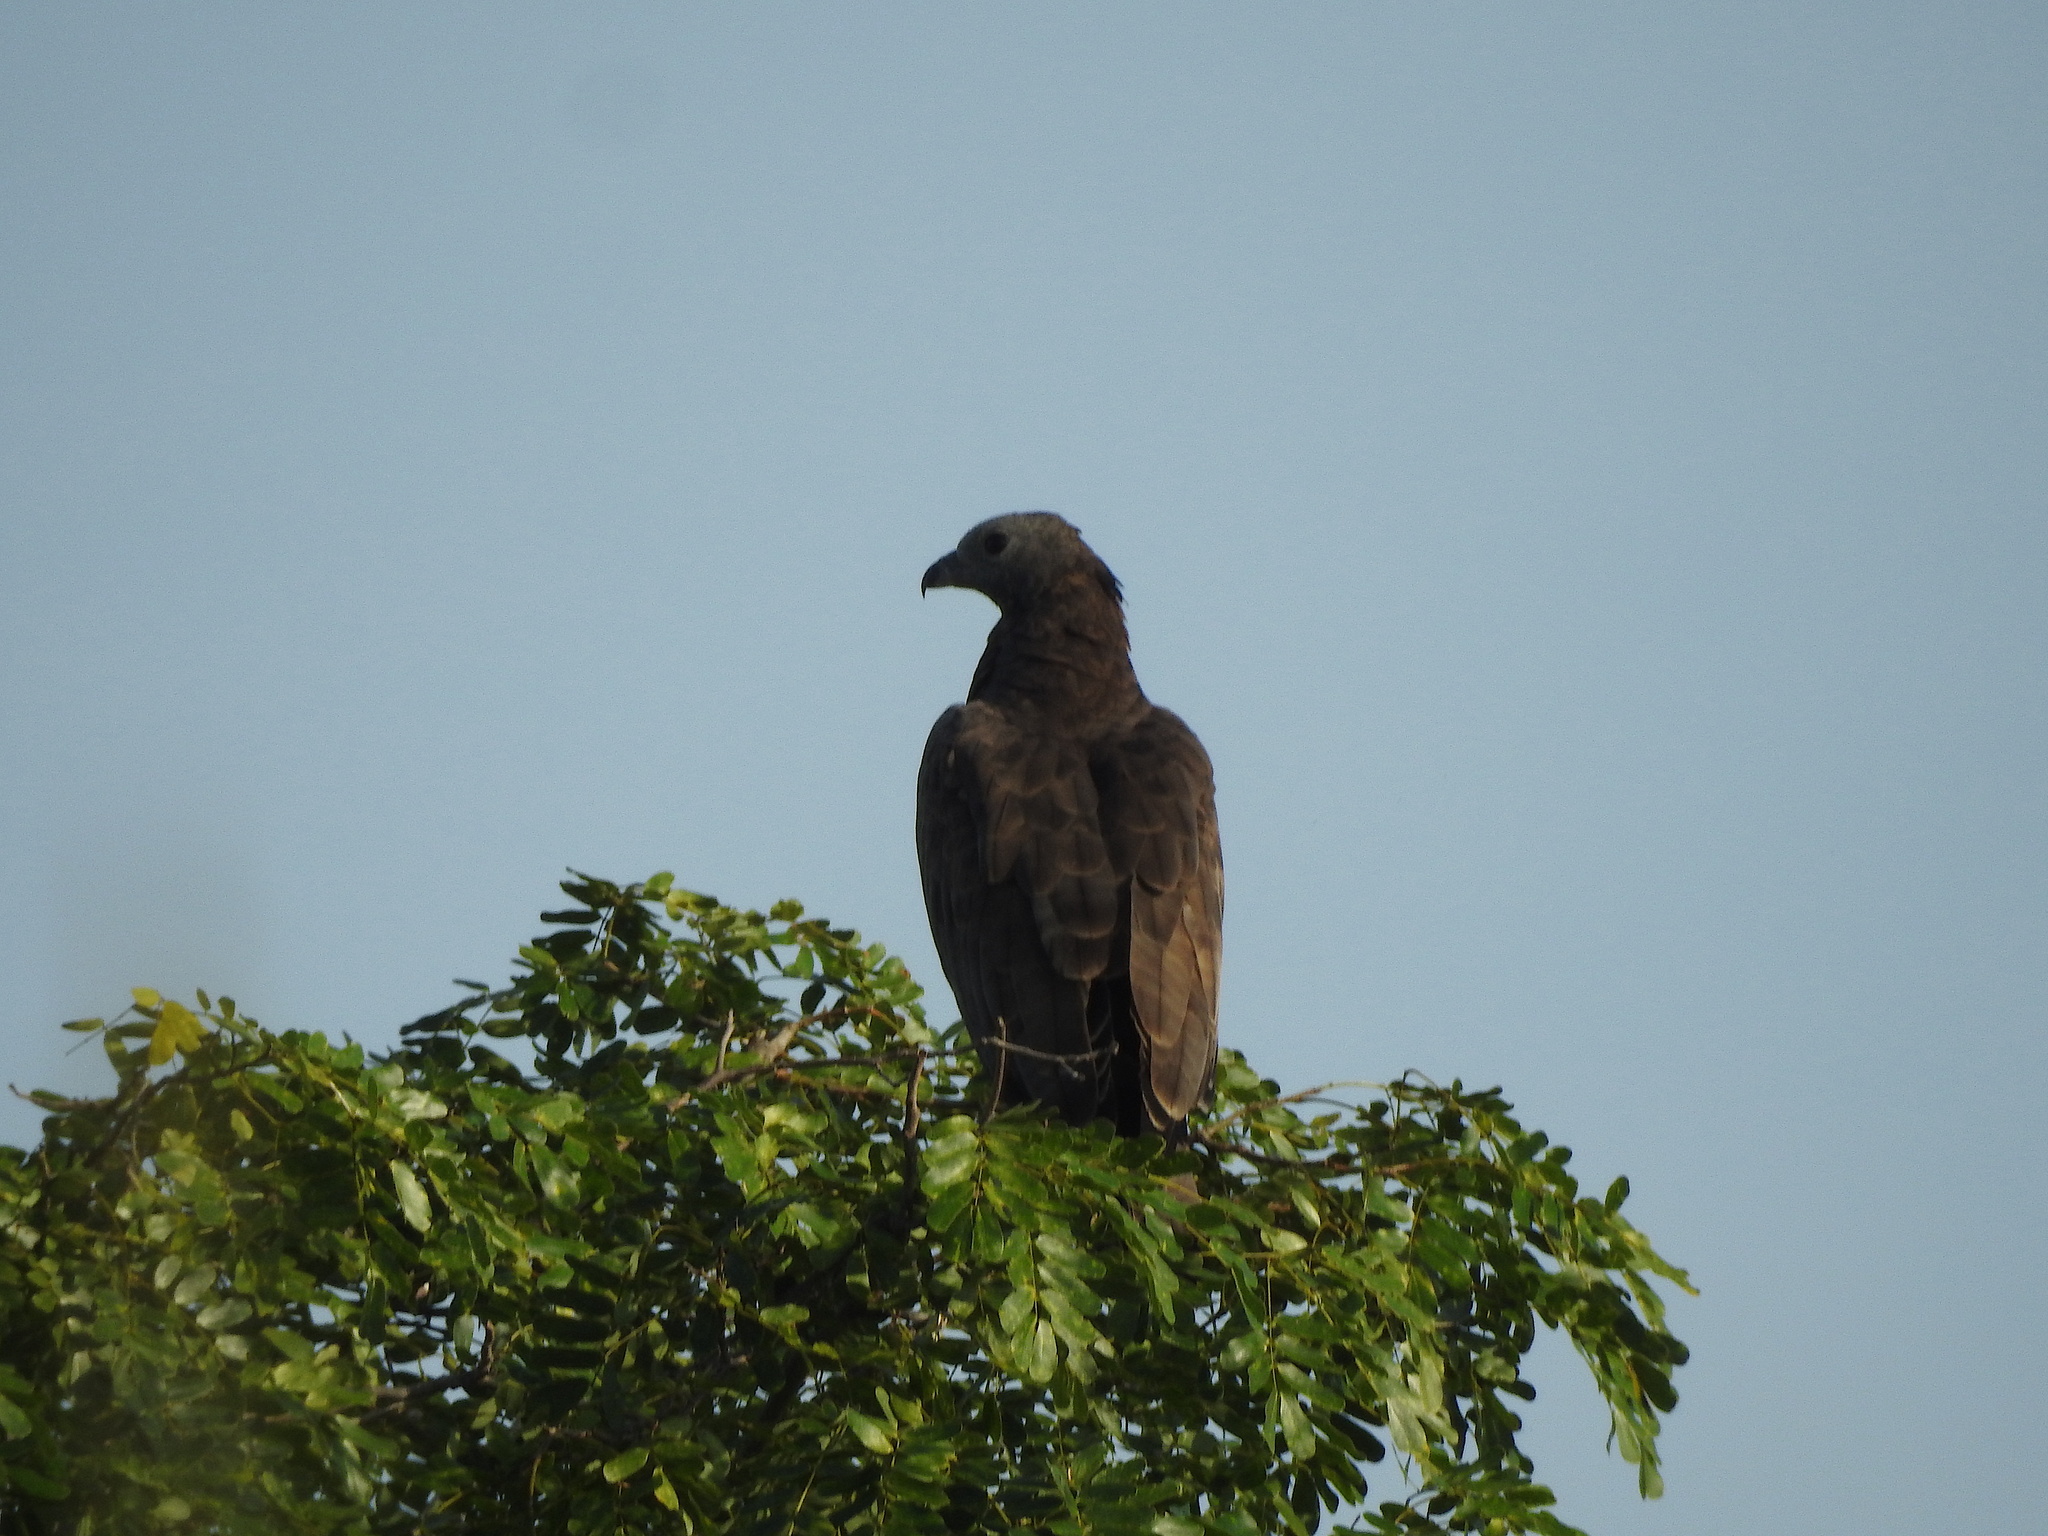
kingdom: Animalia
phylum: Chordata
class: Aves
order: Accipitriformes
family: Accipitridae
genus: Pernis
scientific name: Pernis ptilorhynchus
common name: Crested honey buzzard
